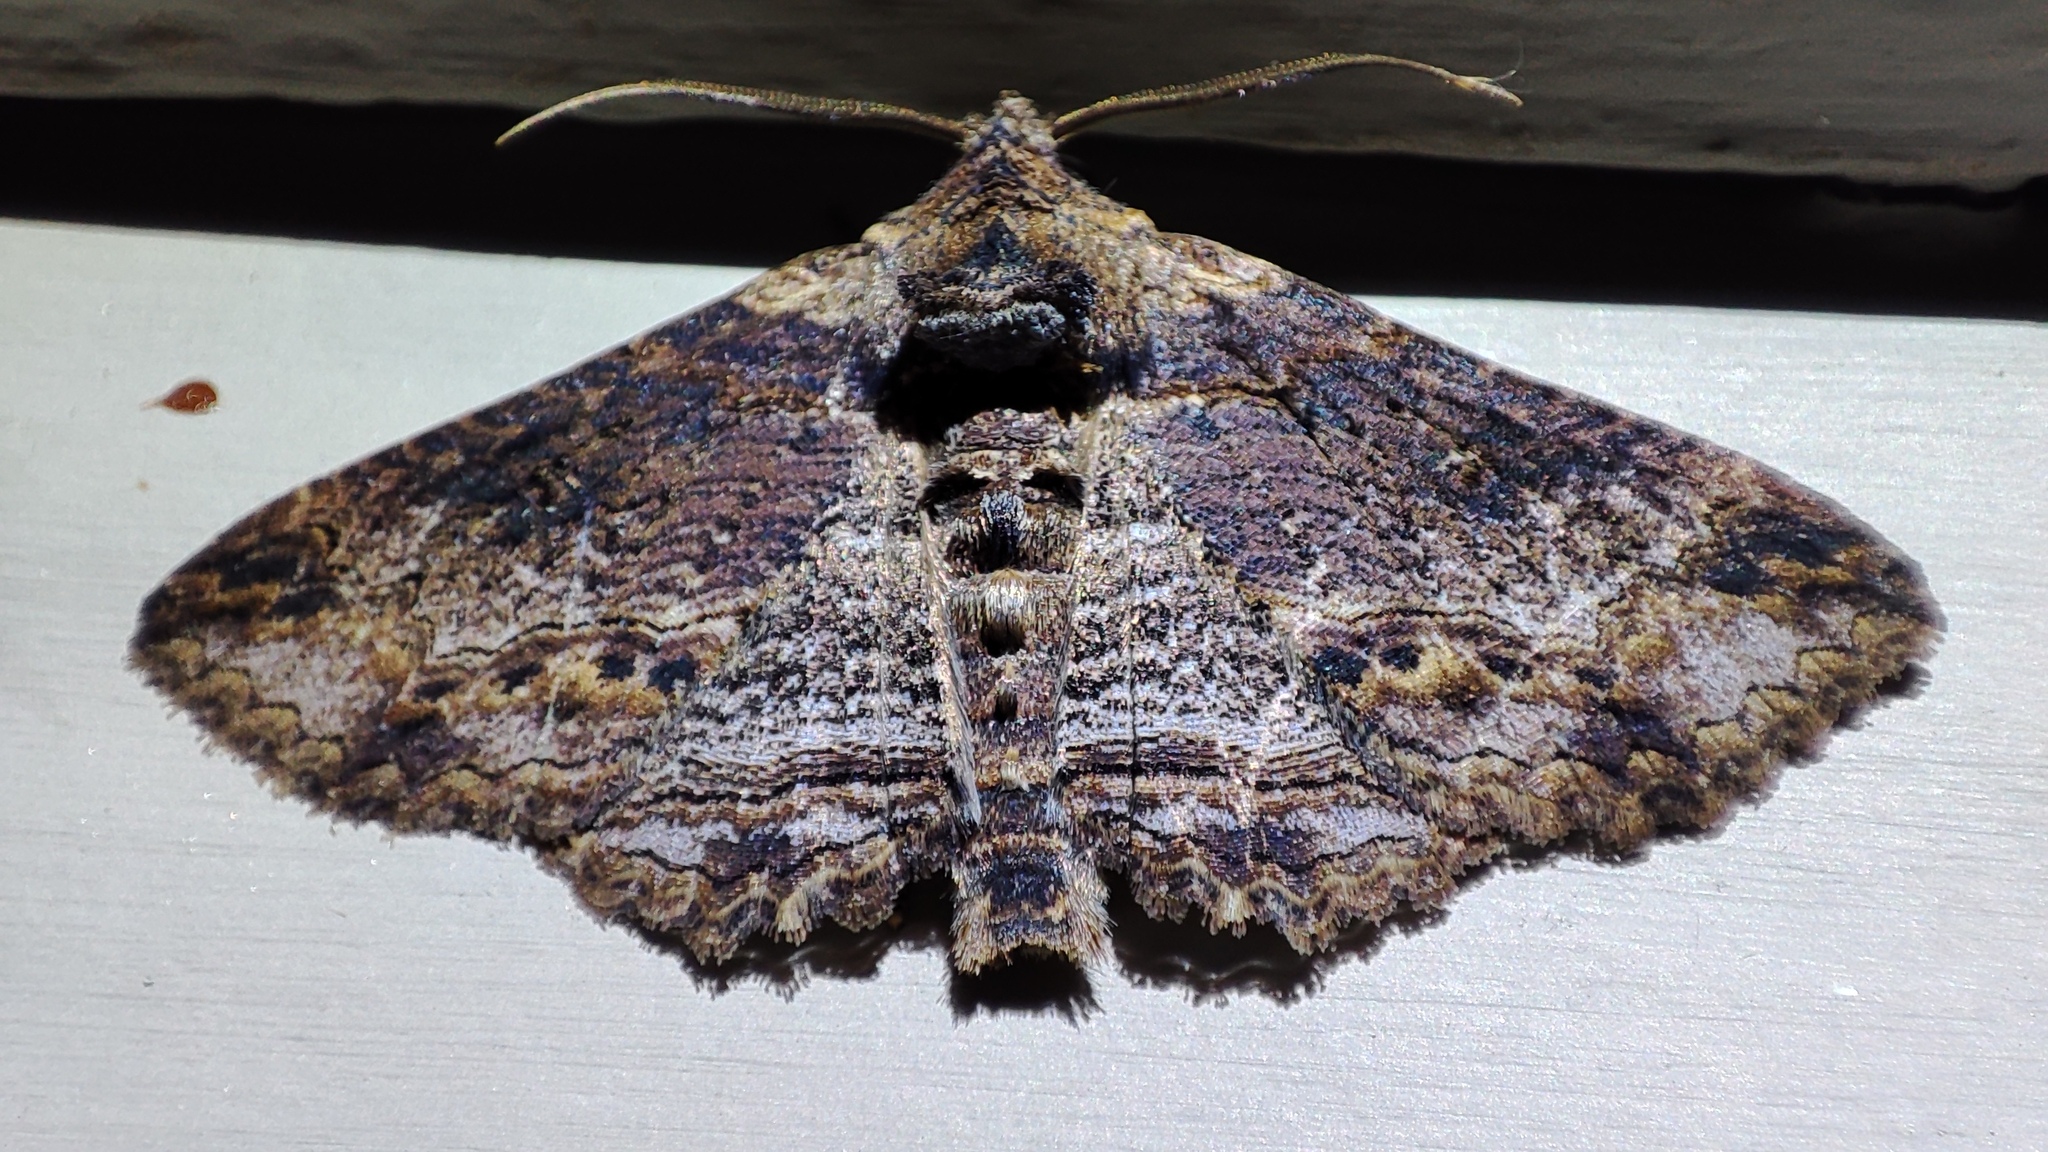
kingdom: Animalia
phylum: Arthropoda
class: Insecta
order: Lepidoptera
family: Erebidae
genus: Pericyma
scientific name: Pericyma mendax
